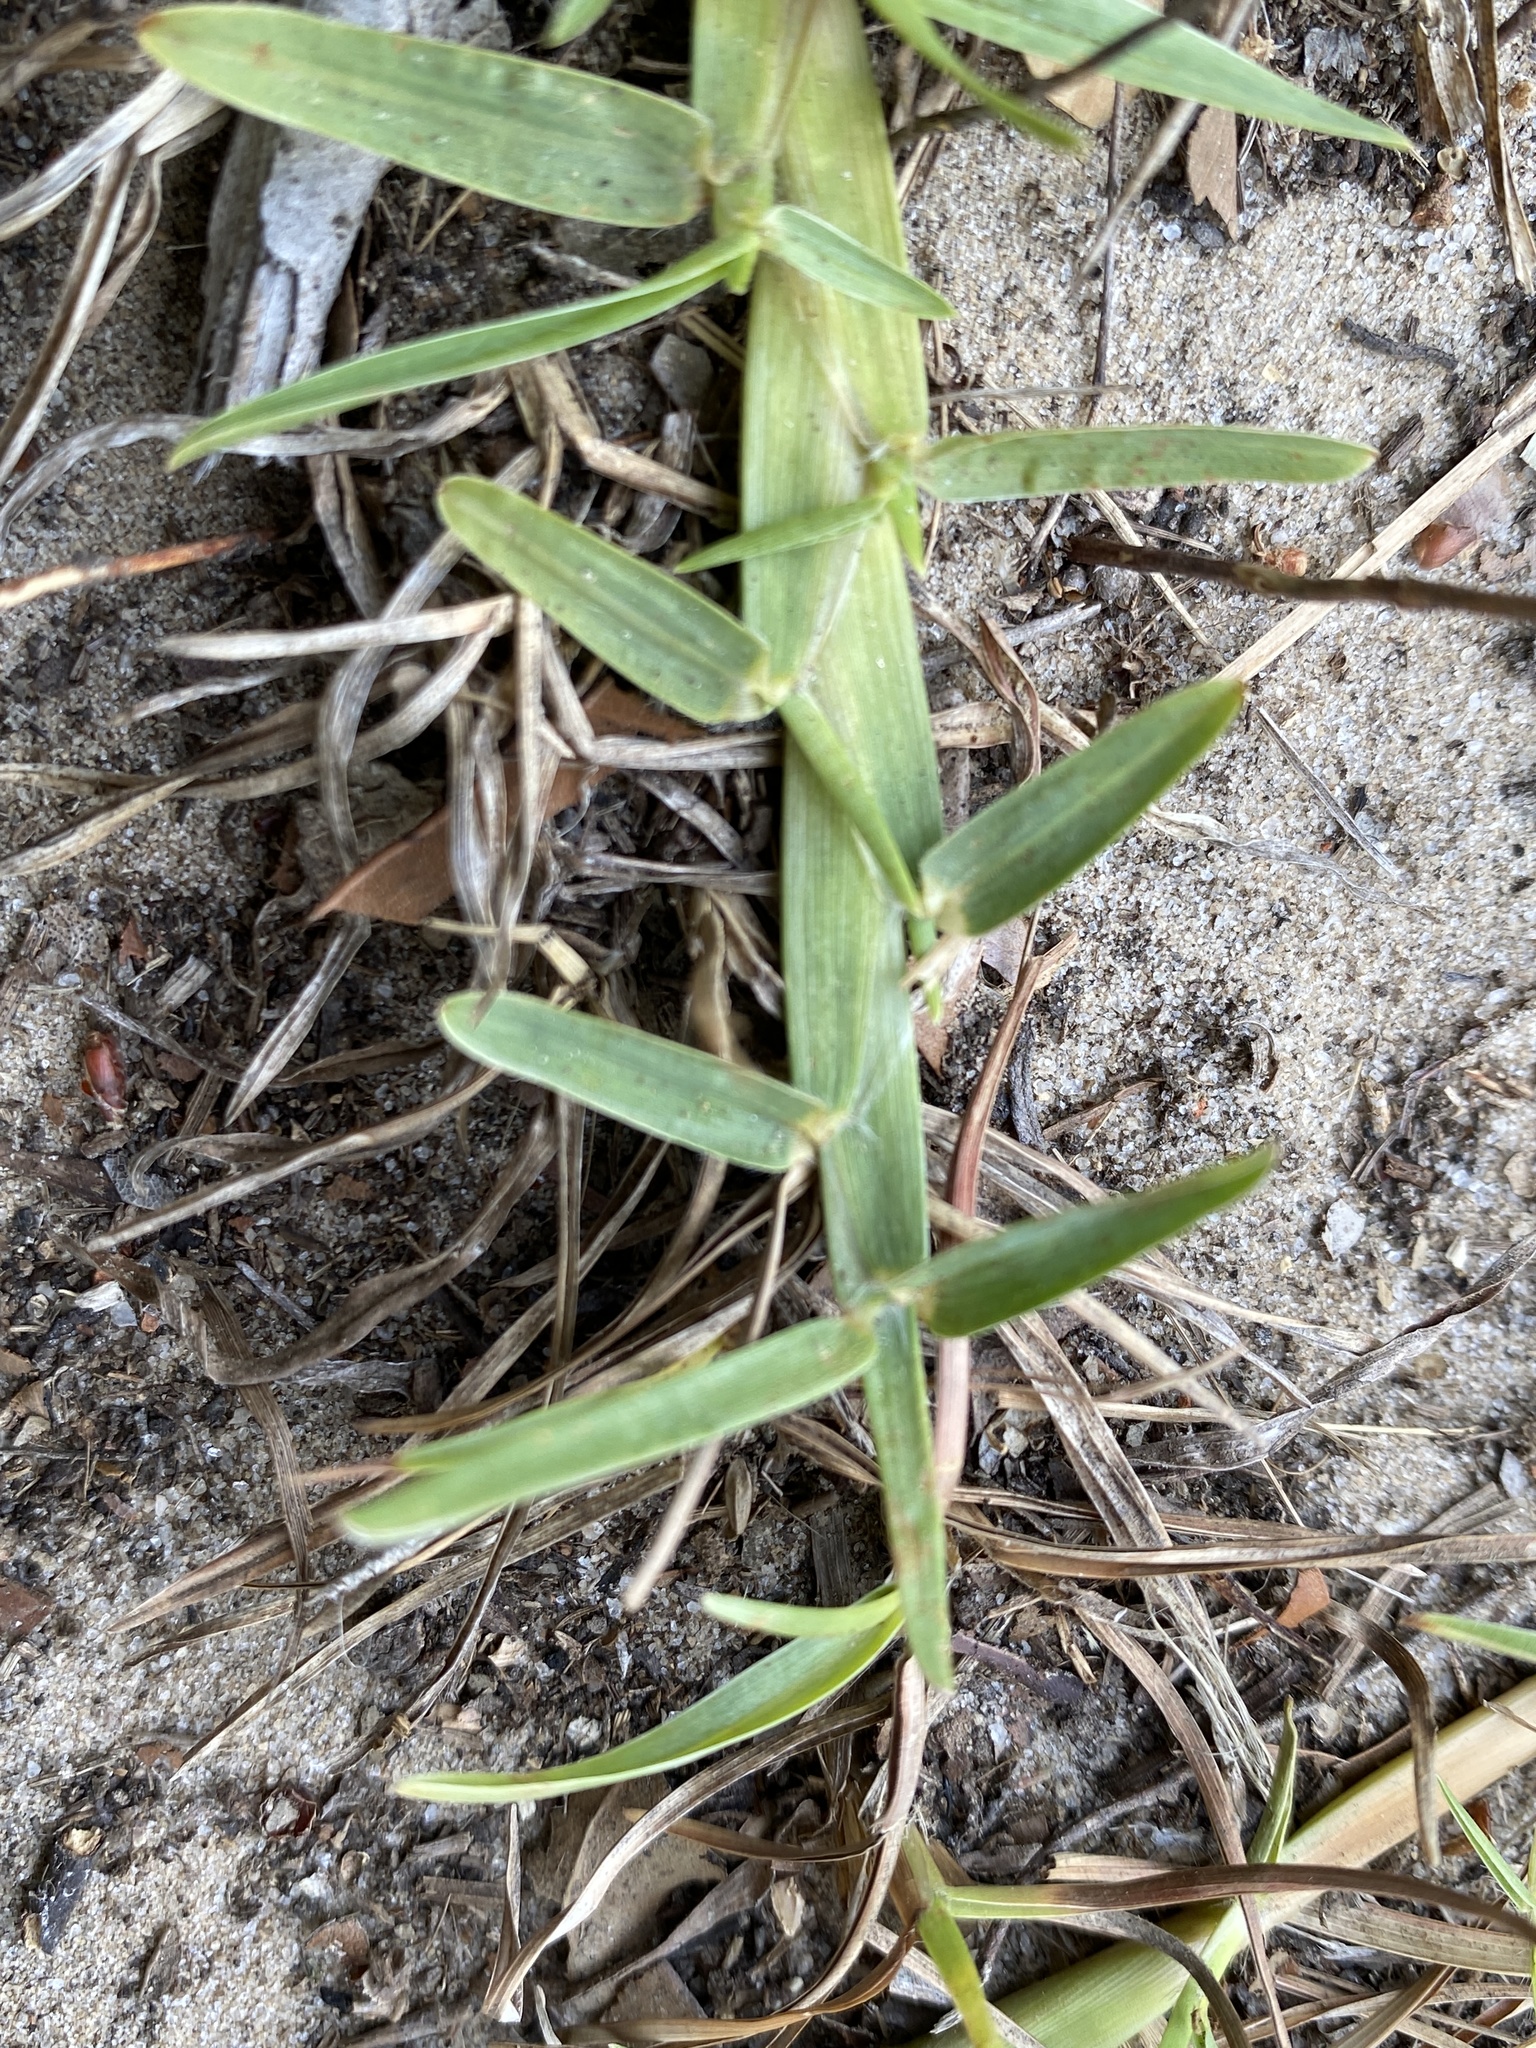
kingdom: Plantae
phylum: Tracheophyta
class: Liliopsida
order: Poales
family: Poaceae
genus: Eremochloa
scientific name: Eremochloa ophiuroides
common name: Centipede grass
